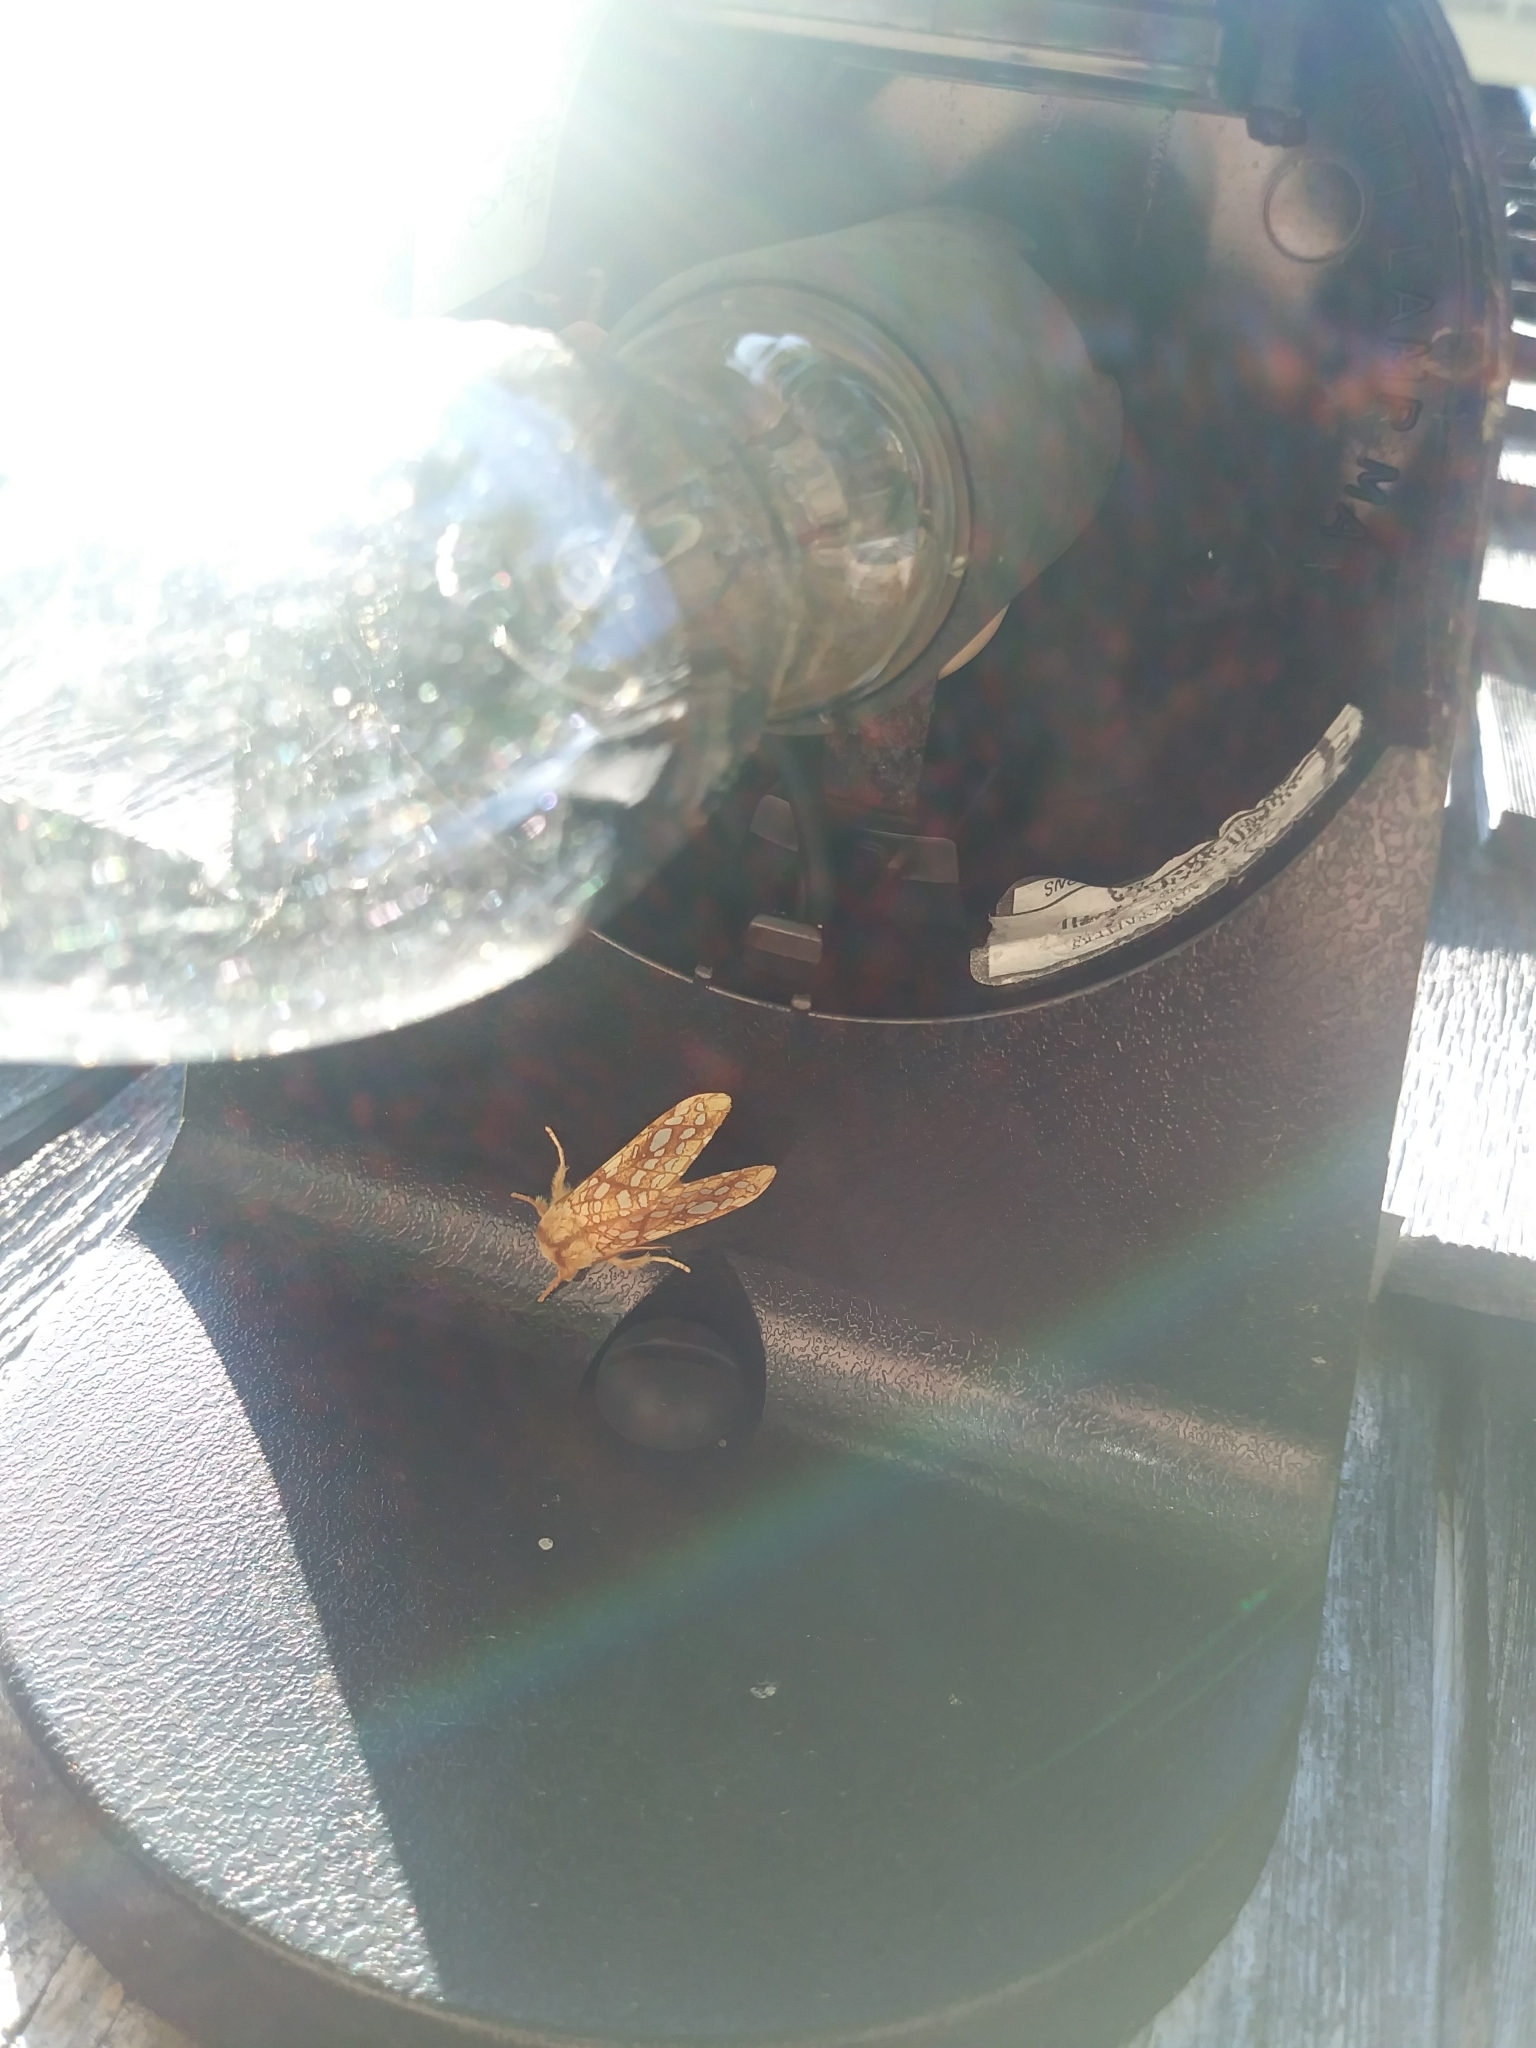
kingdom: Animalia
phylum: Arthropoda
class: Insecta
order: Lepidoptera
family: Erebidae
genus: Lophocampa
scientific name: Lophocampa caryae
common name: Hickory tussock moth
